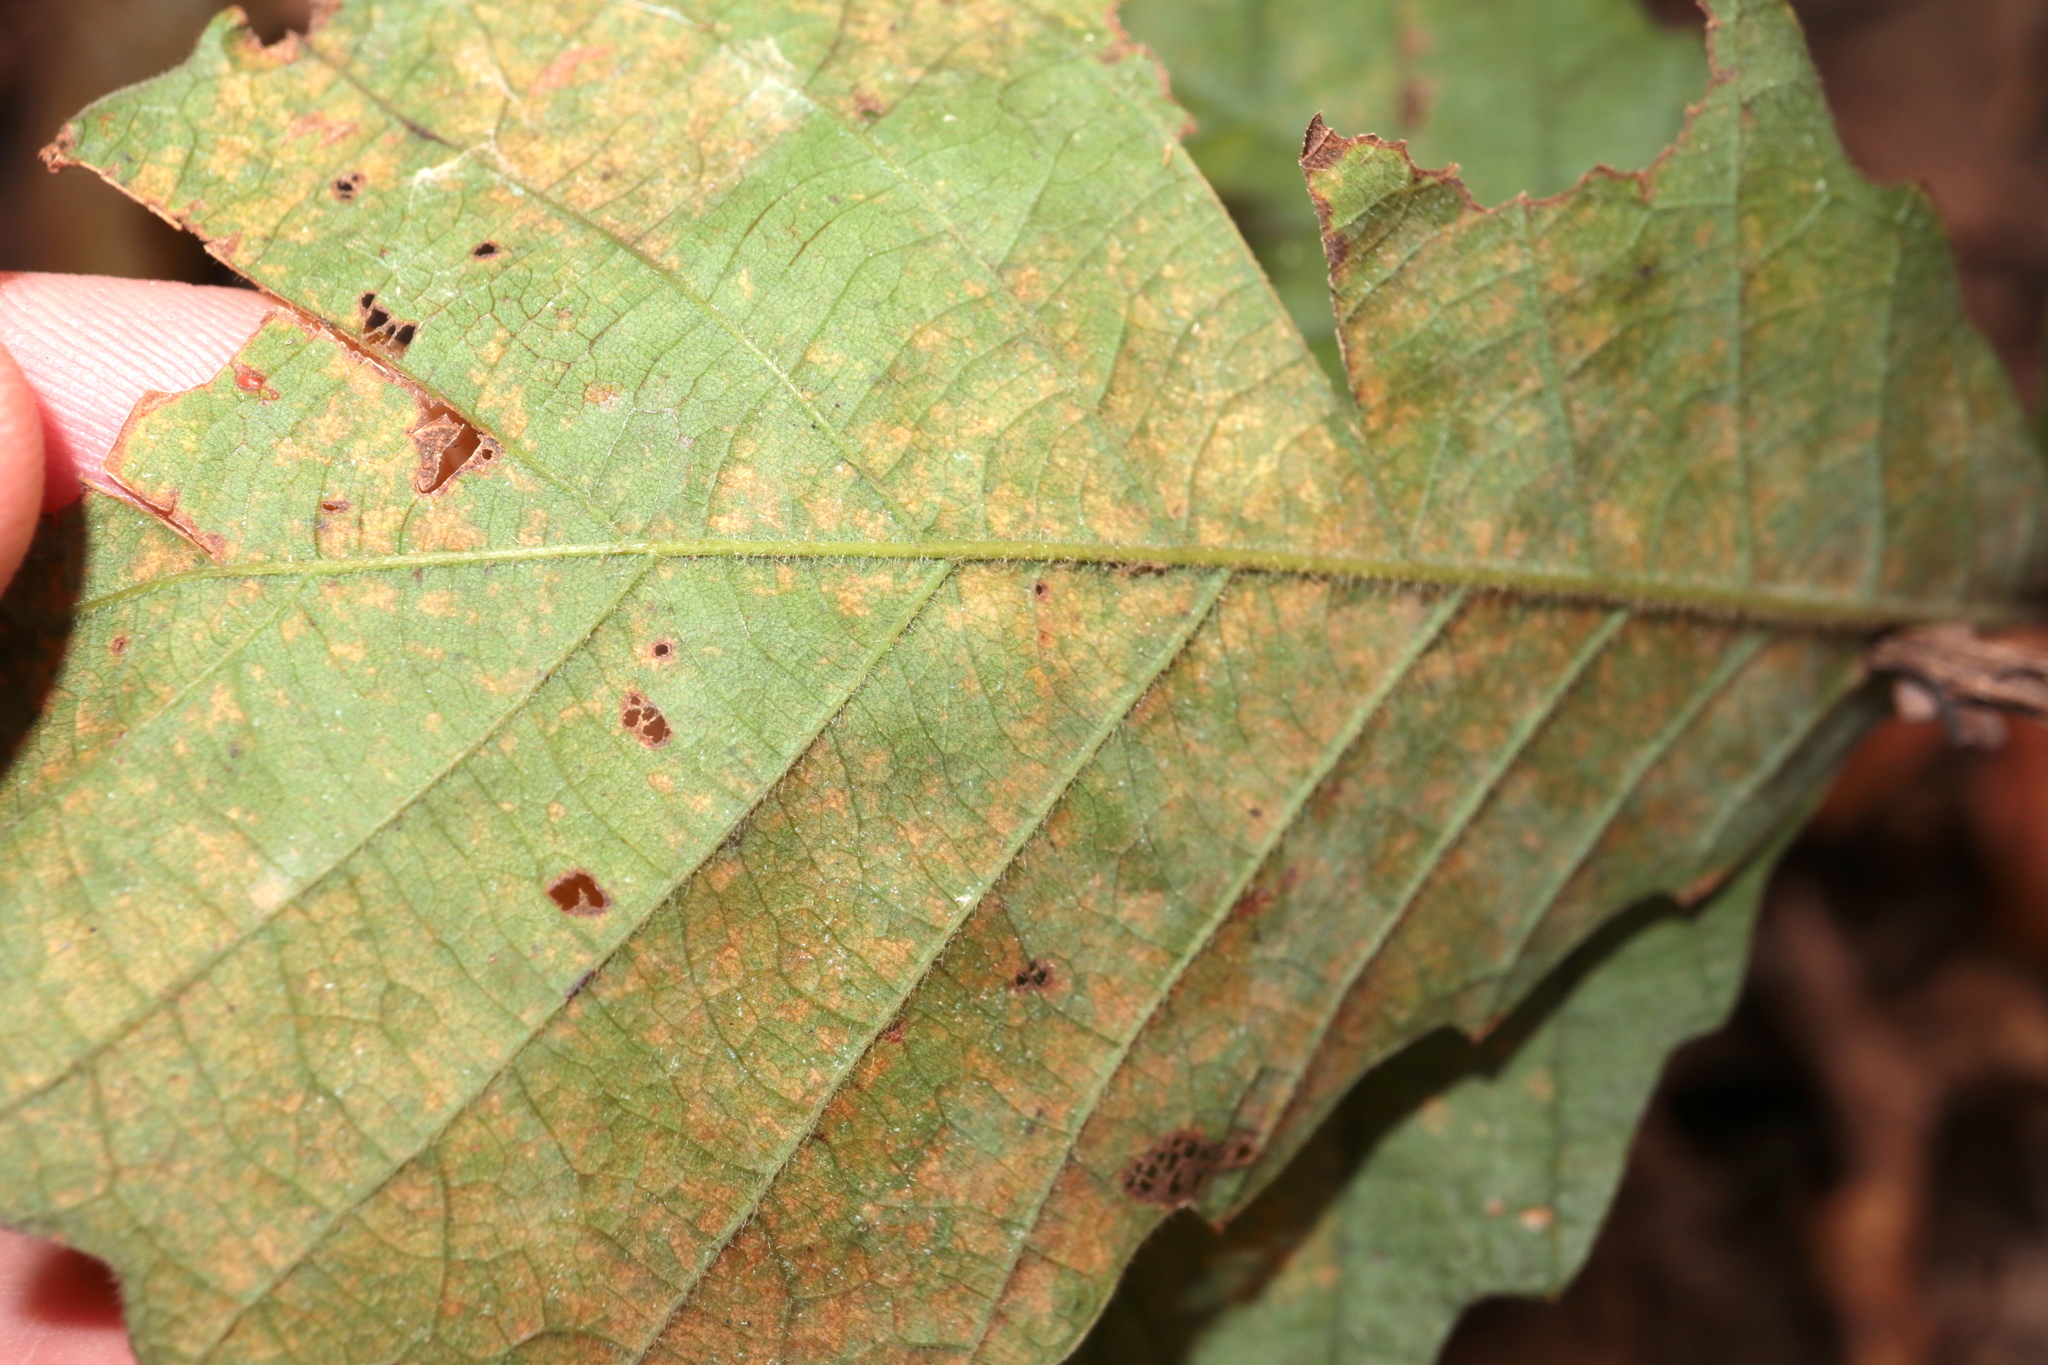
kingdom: Plantae
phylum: Tracheophyta
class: Magnoliopsida
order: Fagales
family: Fagaceae
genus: Quercus
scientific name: Quercus michauxii
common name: Swamp chestnut oak
